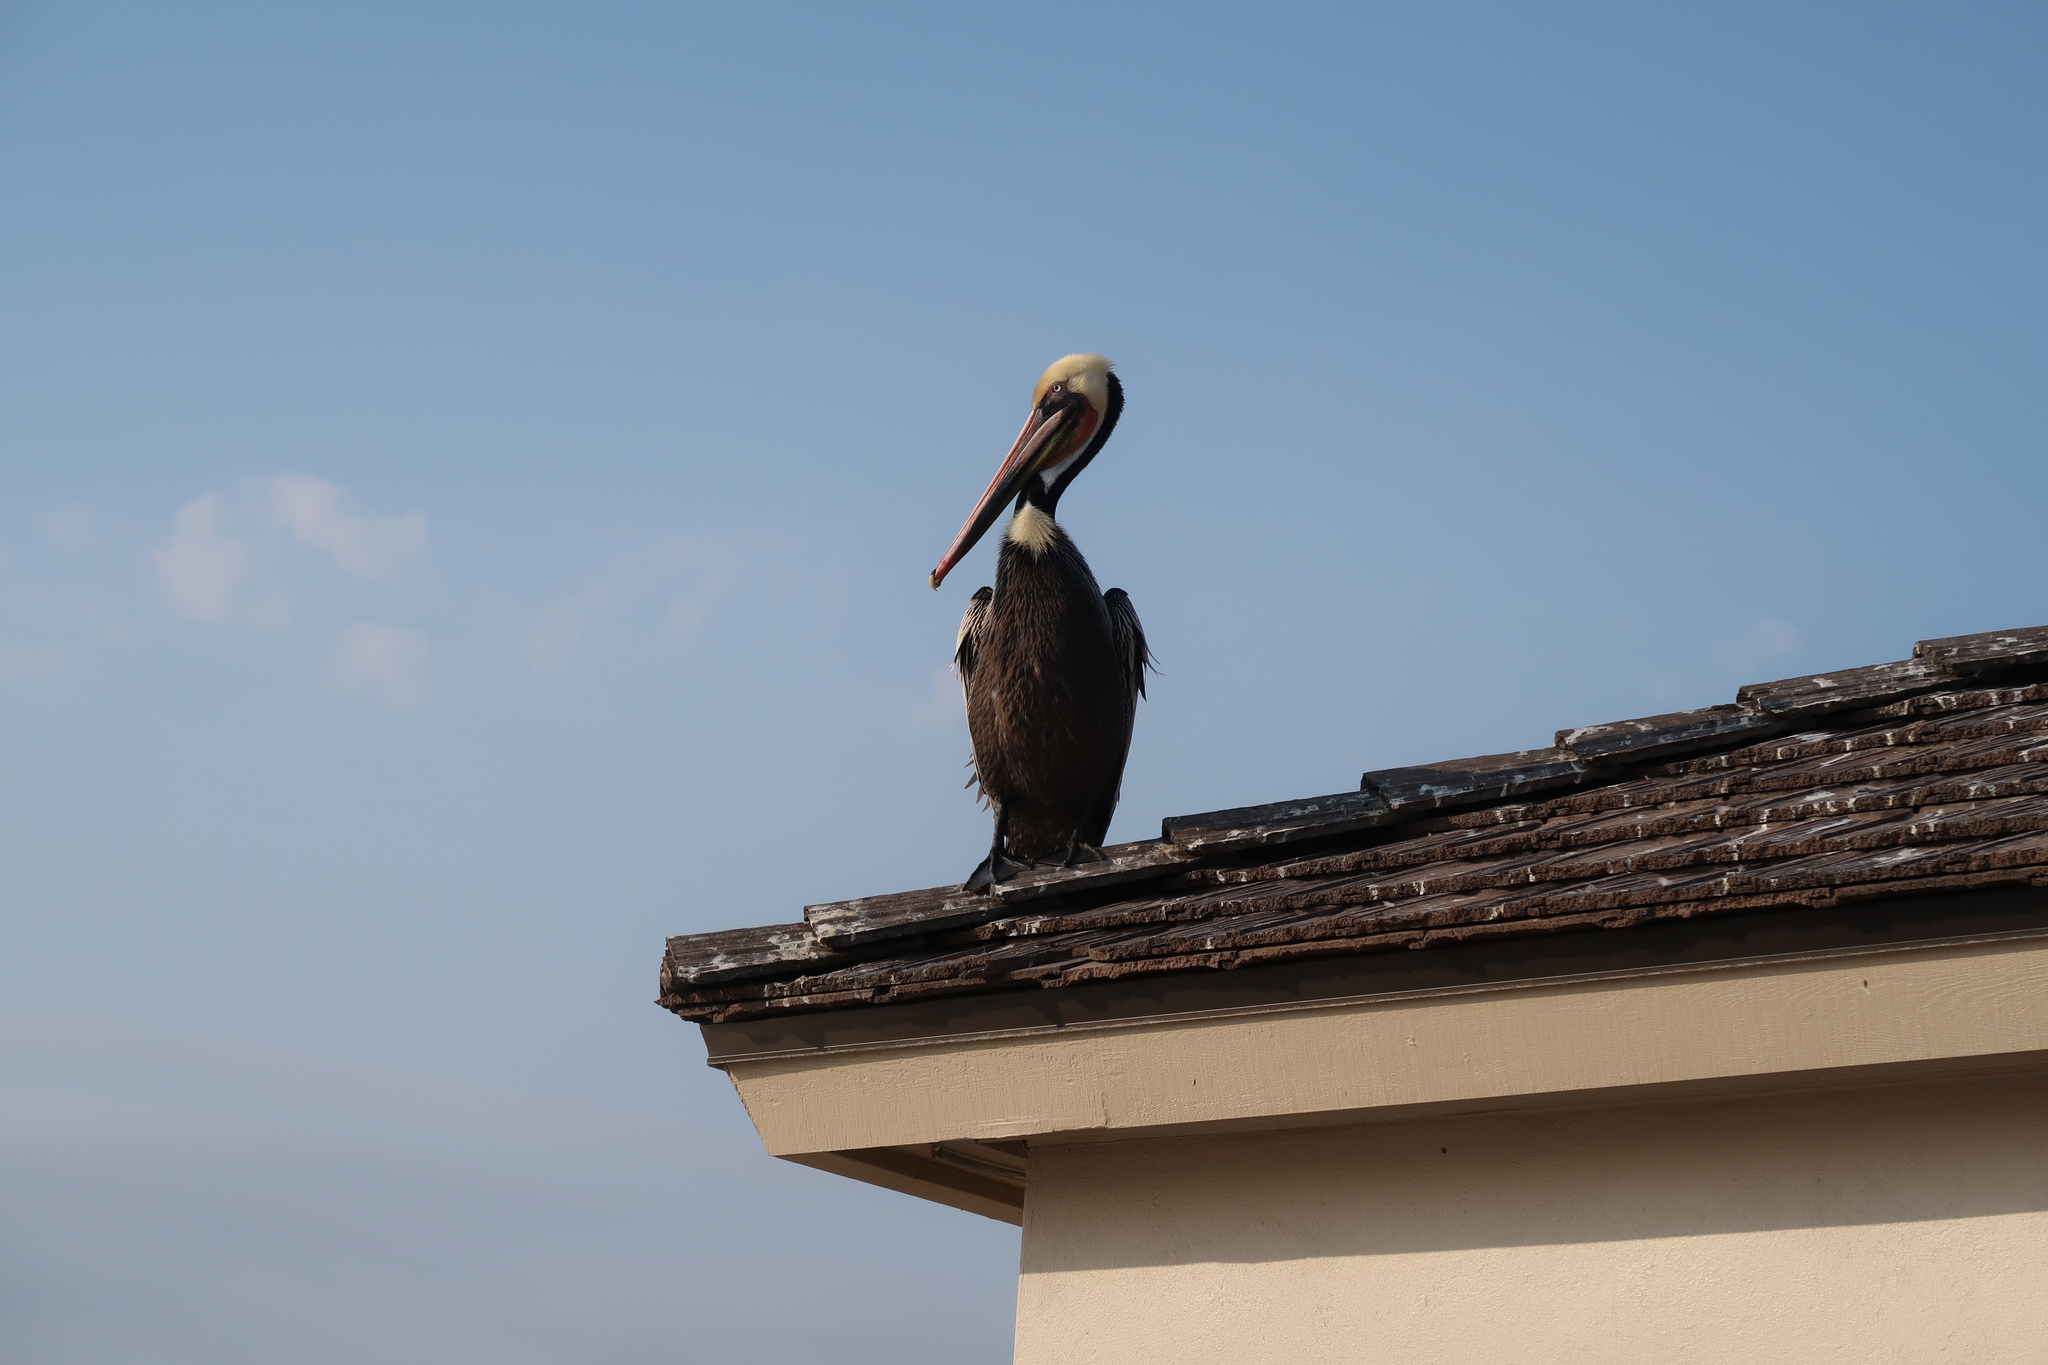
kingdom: Animalia
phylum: Chordata
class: Aves
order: Pelecaniformes
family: Pelecanidae
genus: Pelecanus
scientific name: Pelecanus occidentalis
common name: Brown pelican
